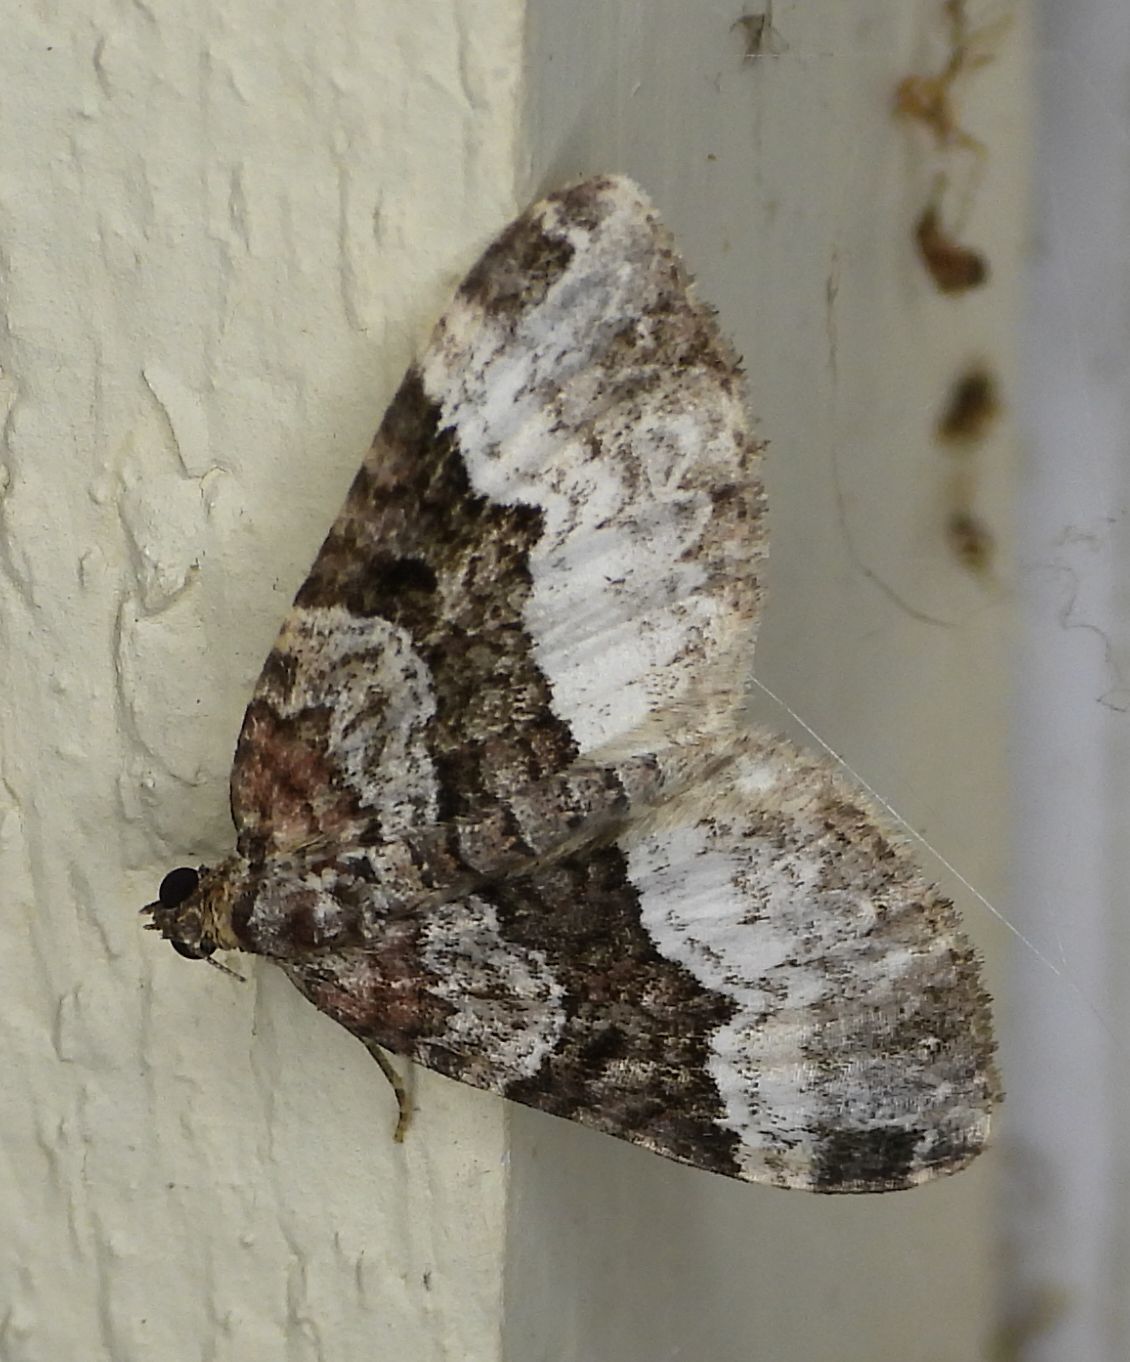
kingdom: Animalia
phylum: Arthropoda
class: Insecta
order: Lepidoptera
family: Geometridae
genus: Euphyia
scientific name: Euphyia intermediata
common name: Sharp-angled carpet
